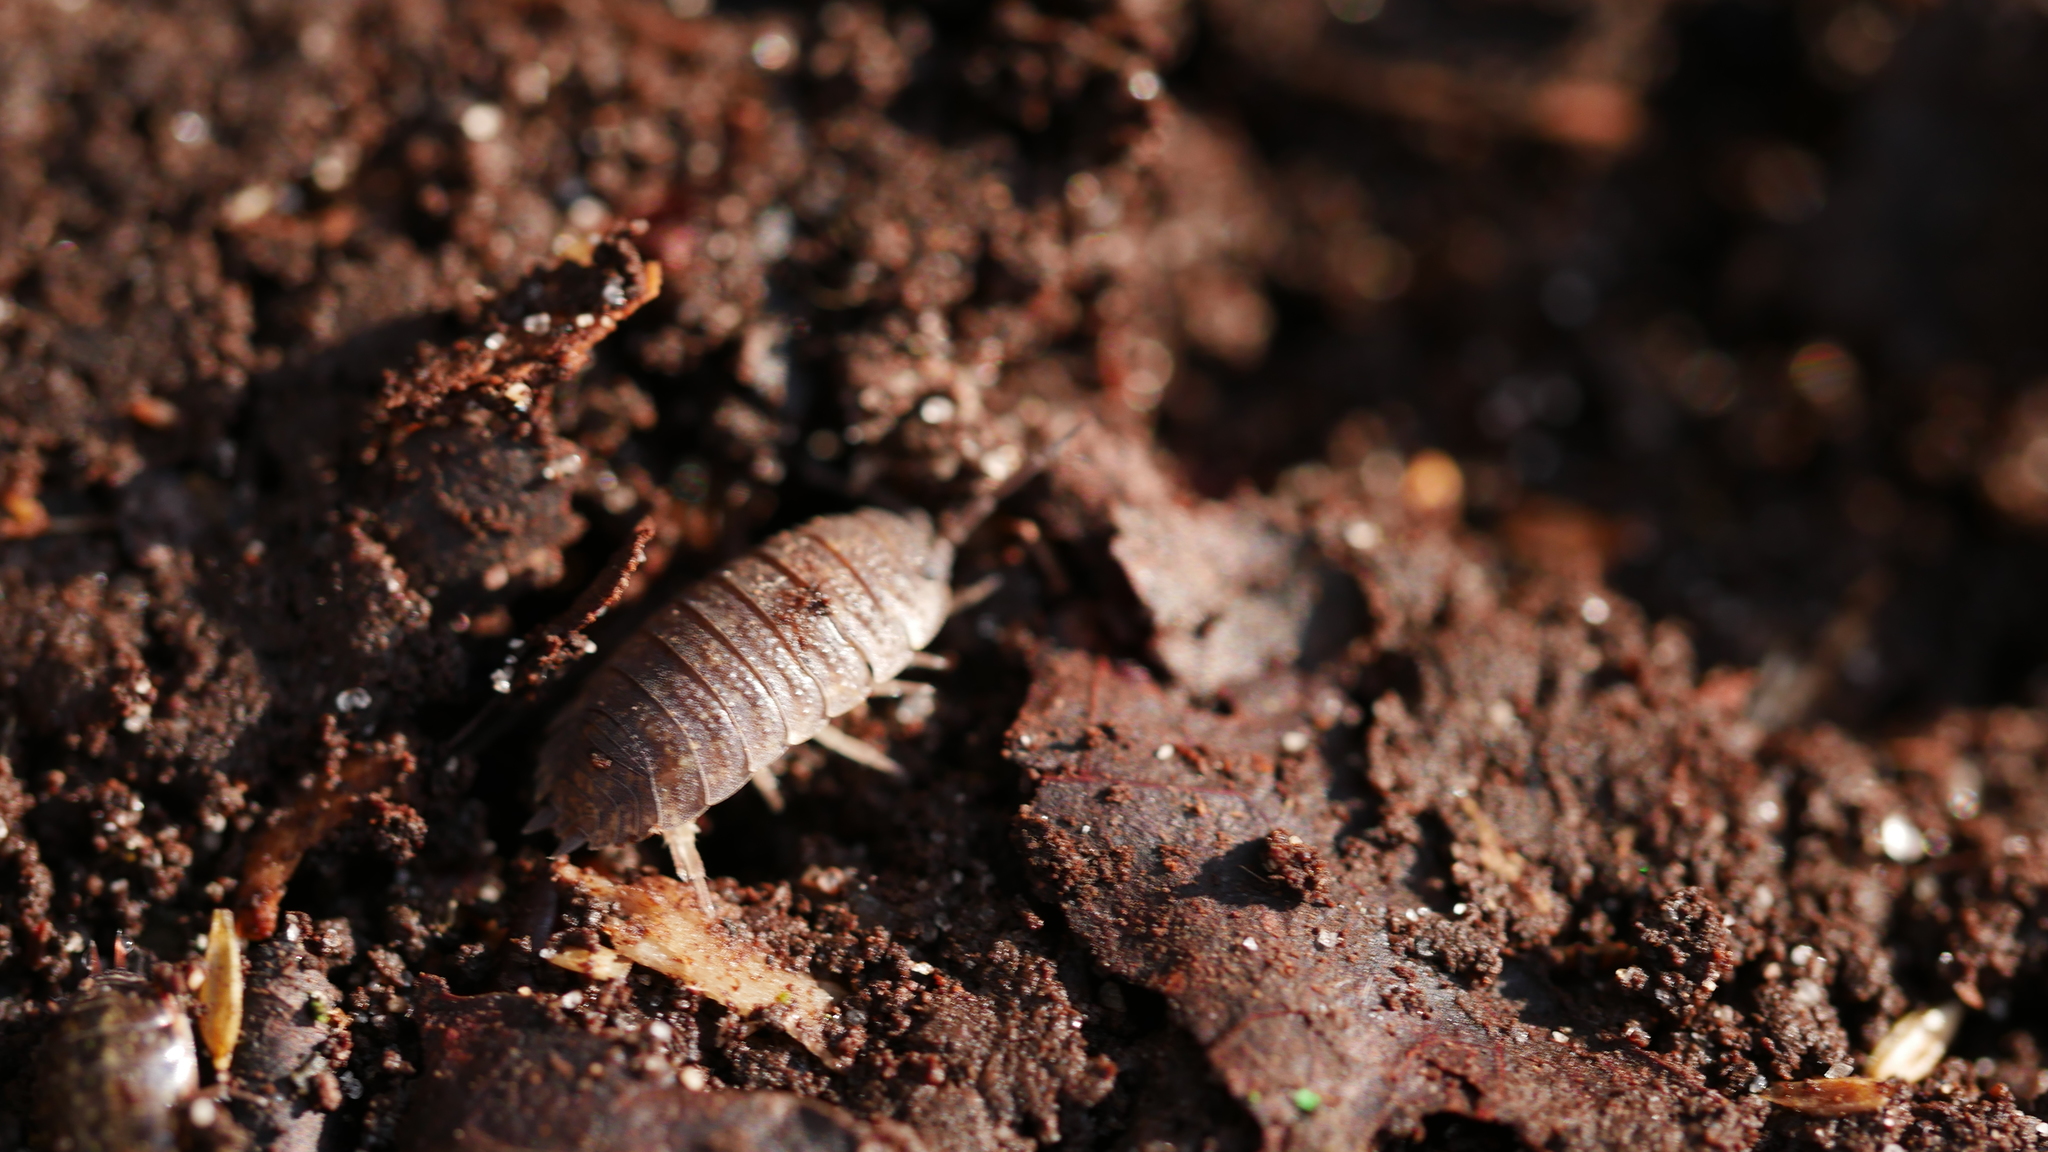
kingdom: Animalia
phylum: Arthropoda
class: Malacostraca
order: Isopoda
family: Porcellionidae
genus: Porcellio
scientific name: Porcellio scaber
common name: Common rough woodlouse
